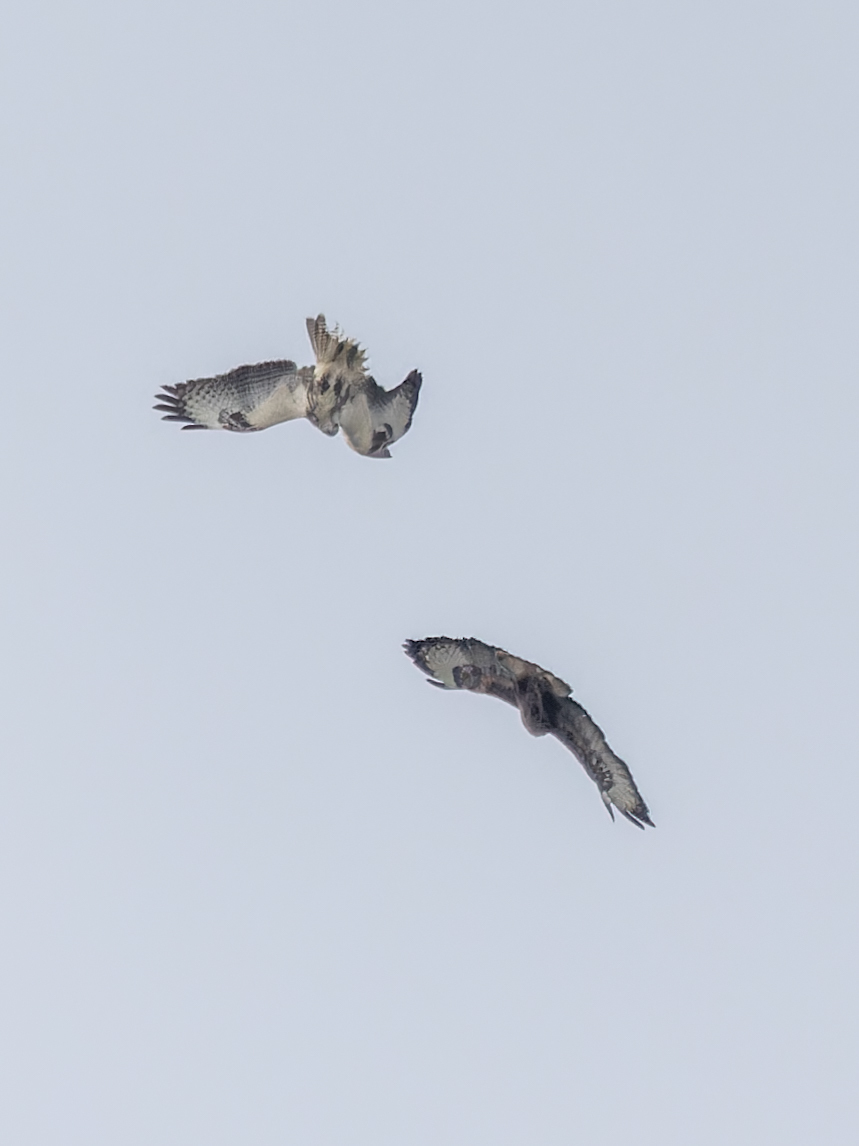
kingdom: Animalia
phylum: Chordata
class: Aves
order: Accipitriformes
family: Accipitridae
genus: Buteo
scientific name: Buteo buteo
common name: Common buzzard
